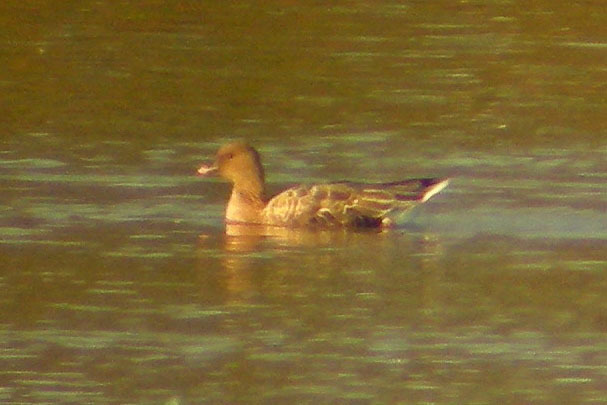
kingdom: Animalia
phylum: Chordata
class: Aves
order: Anseriformes
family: Anatidae
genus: Anser
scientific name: Anser brachyrhynchus
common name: Pink-footed goose
